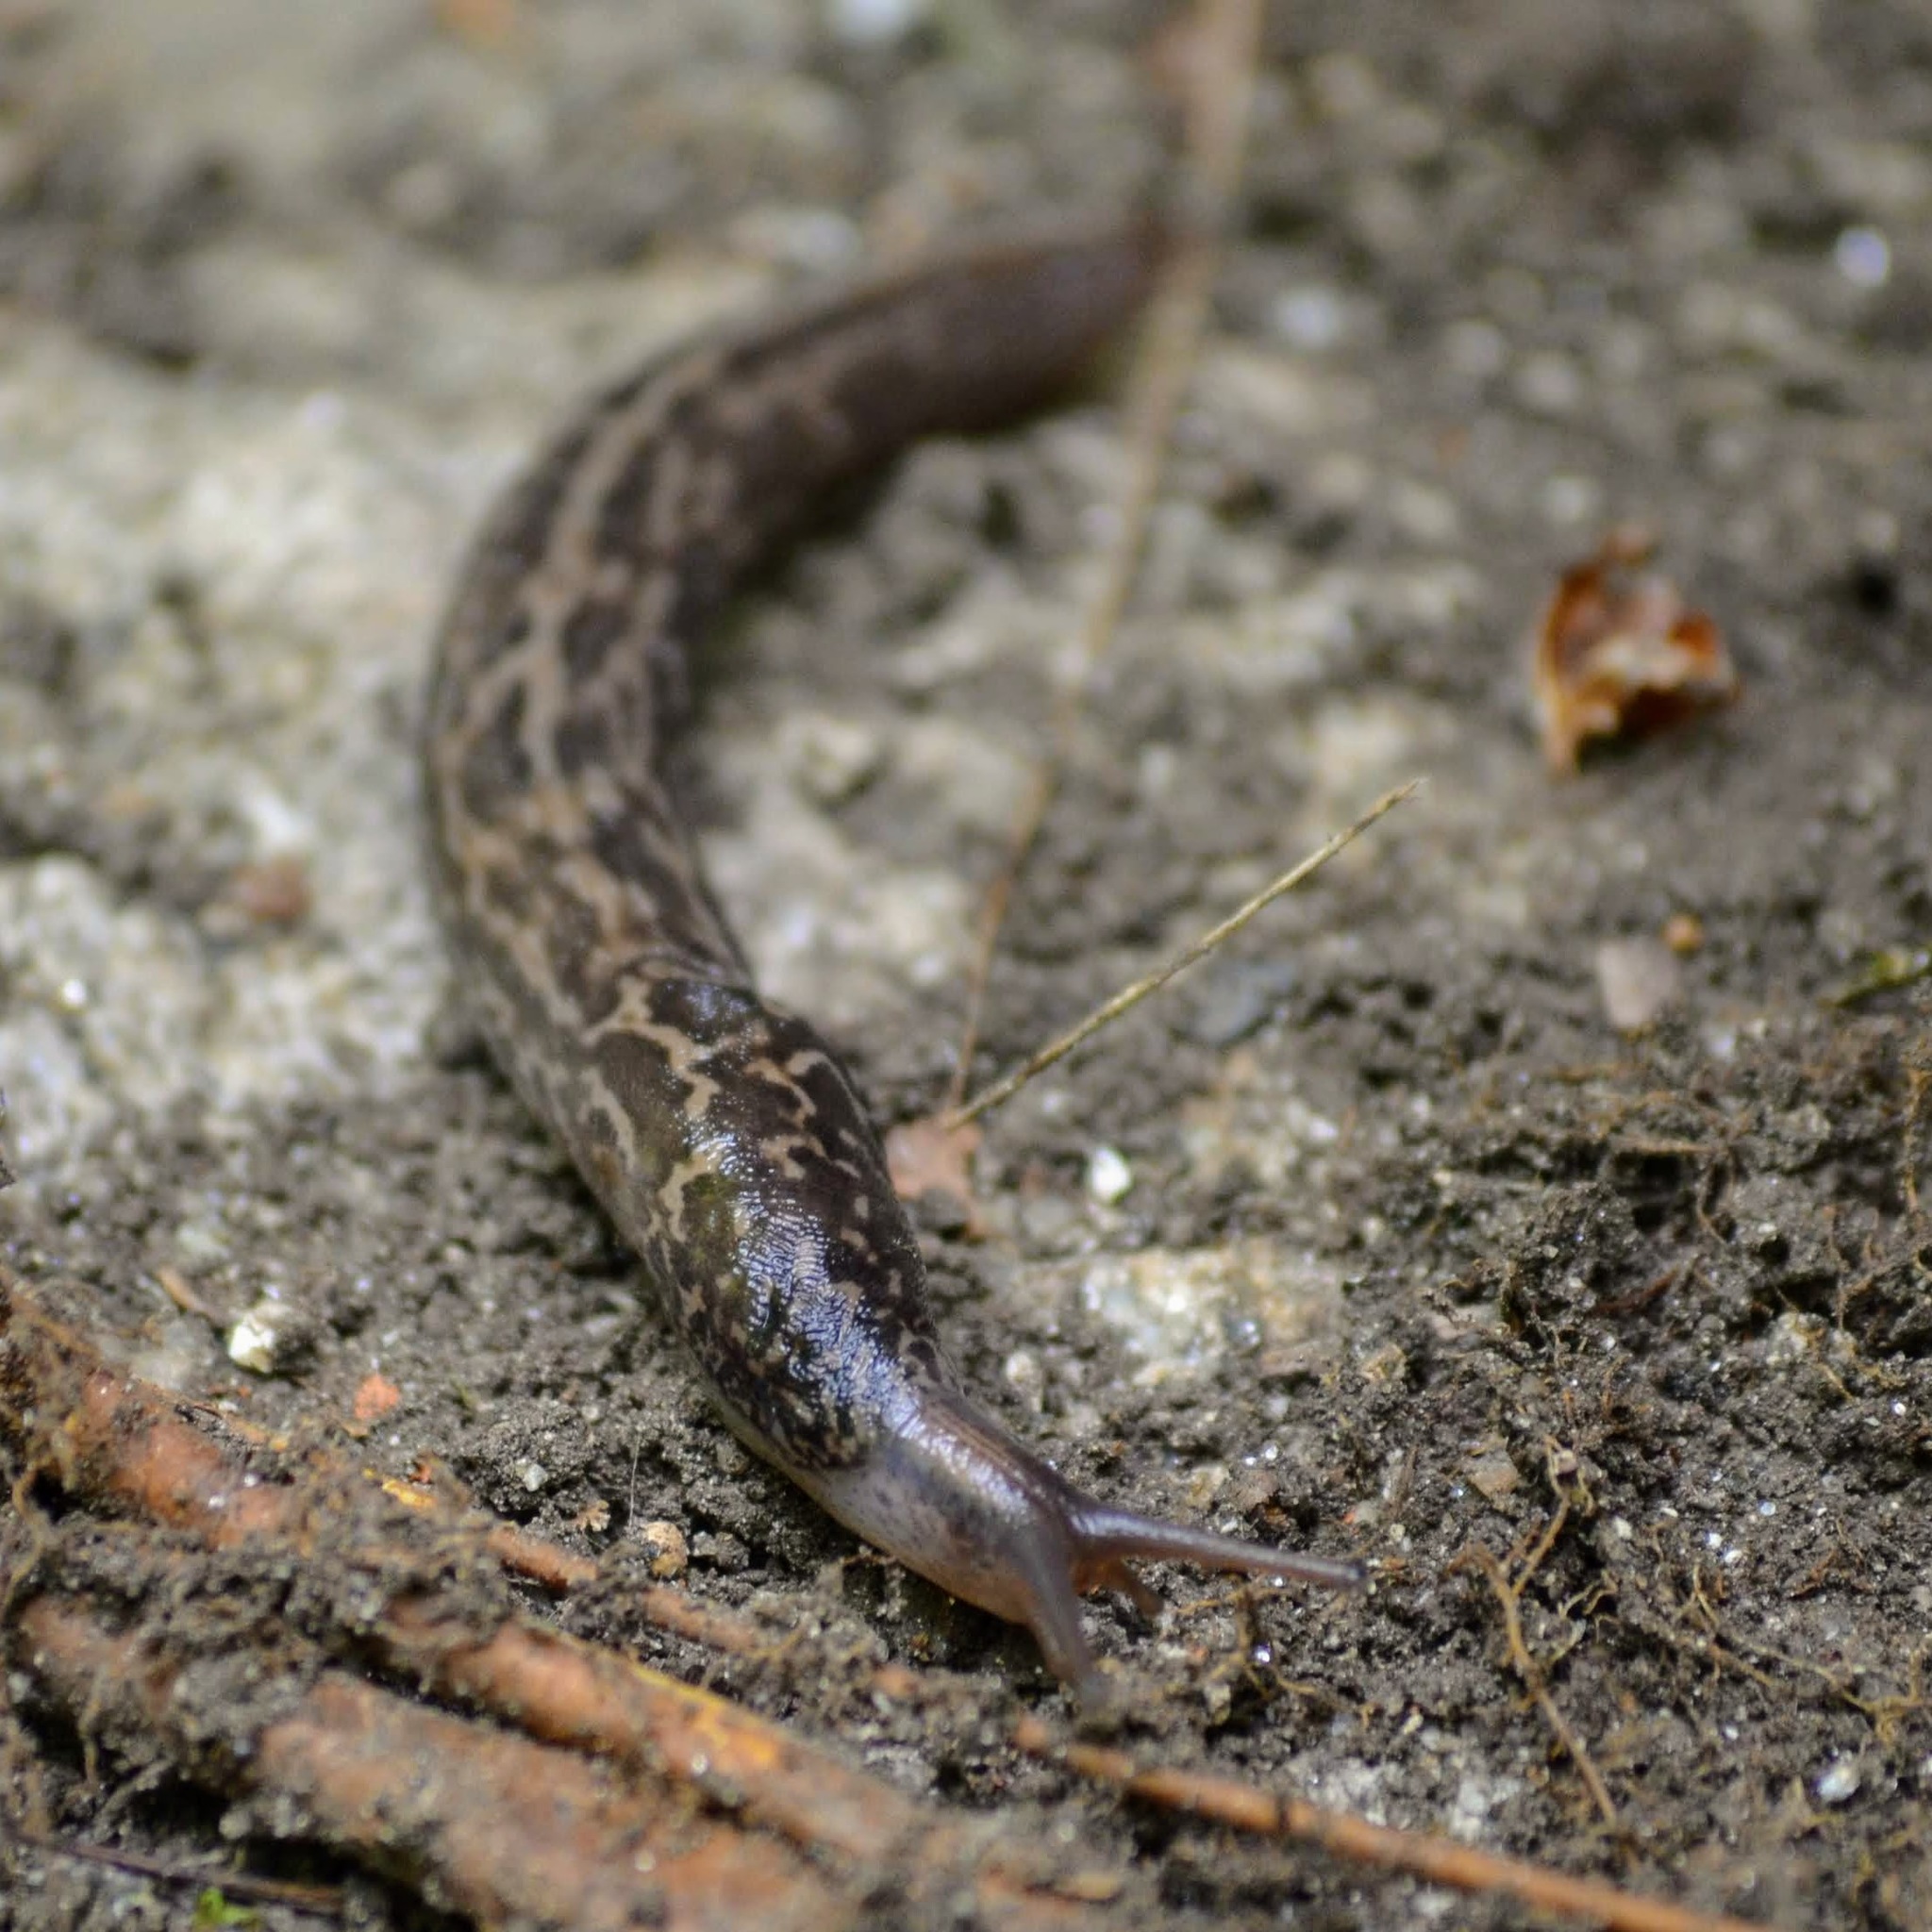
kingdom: Animalia
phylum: Mollusca
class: Gastropoda
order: Stylommatophora
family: Limacidae
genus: Limax
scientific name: Limax maximus
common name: Great grey slug
